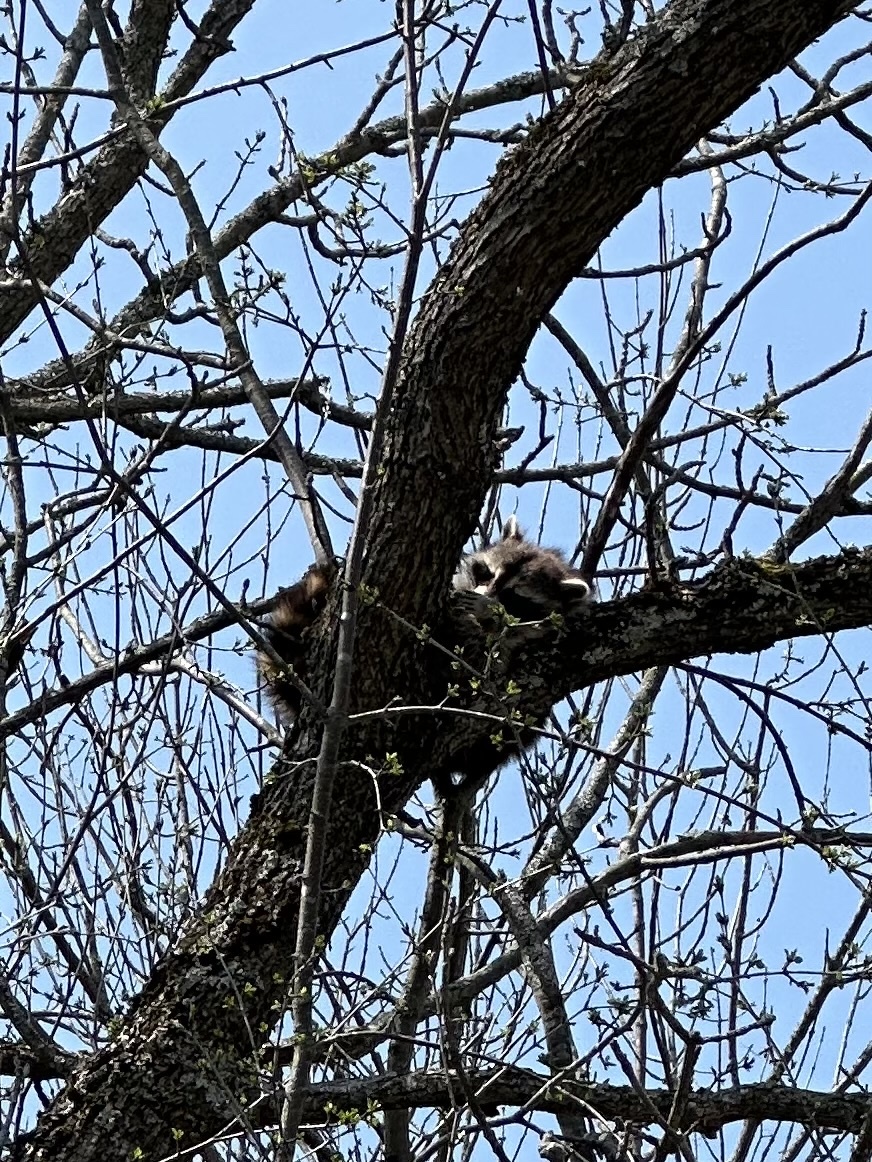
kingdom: Animalia
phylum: Chordata
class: Mammalia
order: Carnivora
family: Procyonidae
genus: Procyon
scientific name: Procyon lotor
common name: Raccoon
